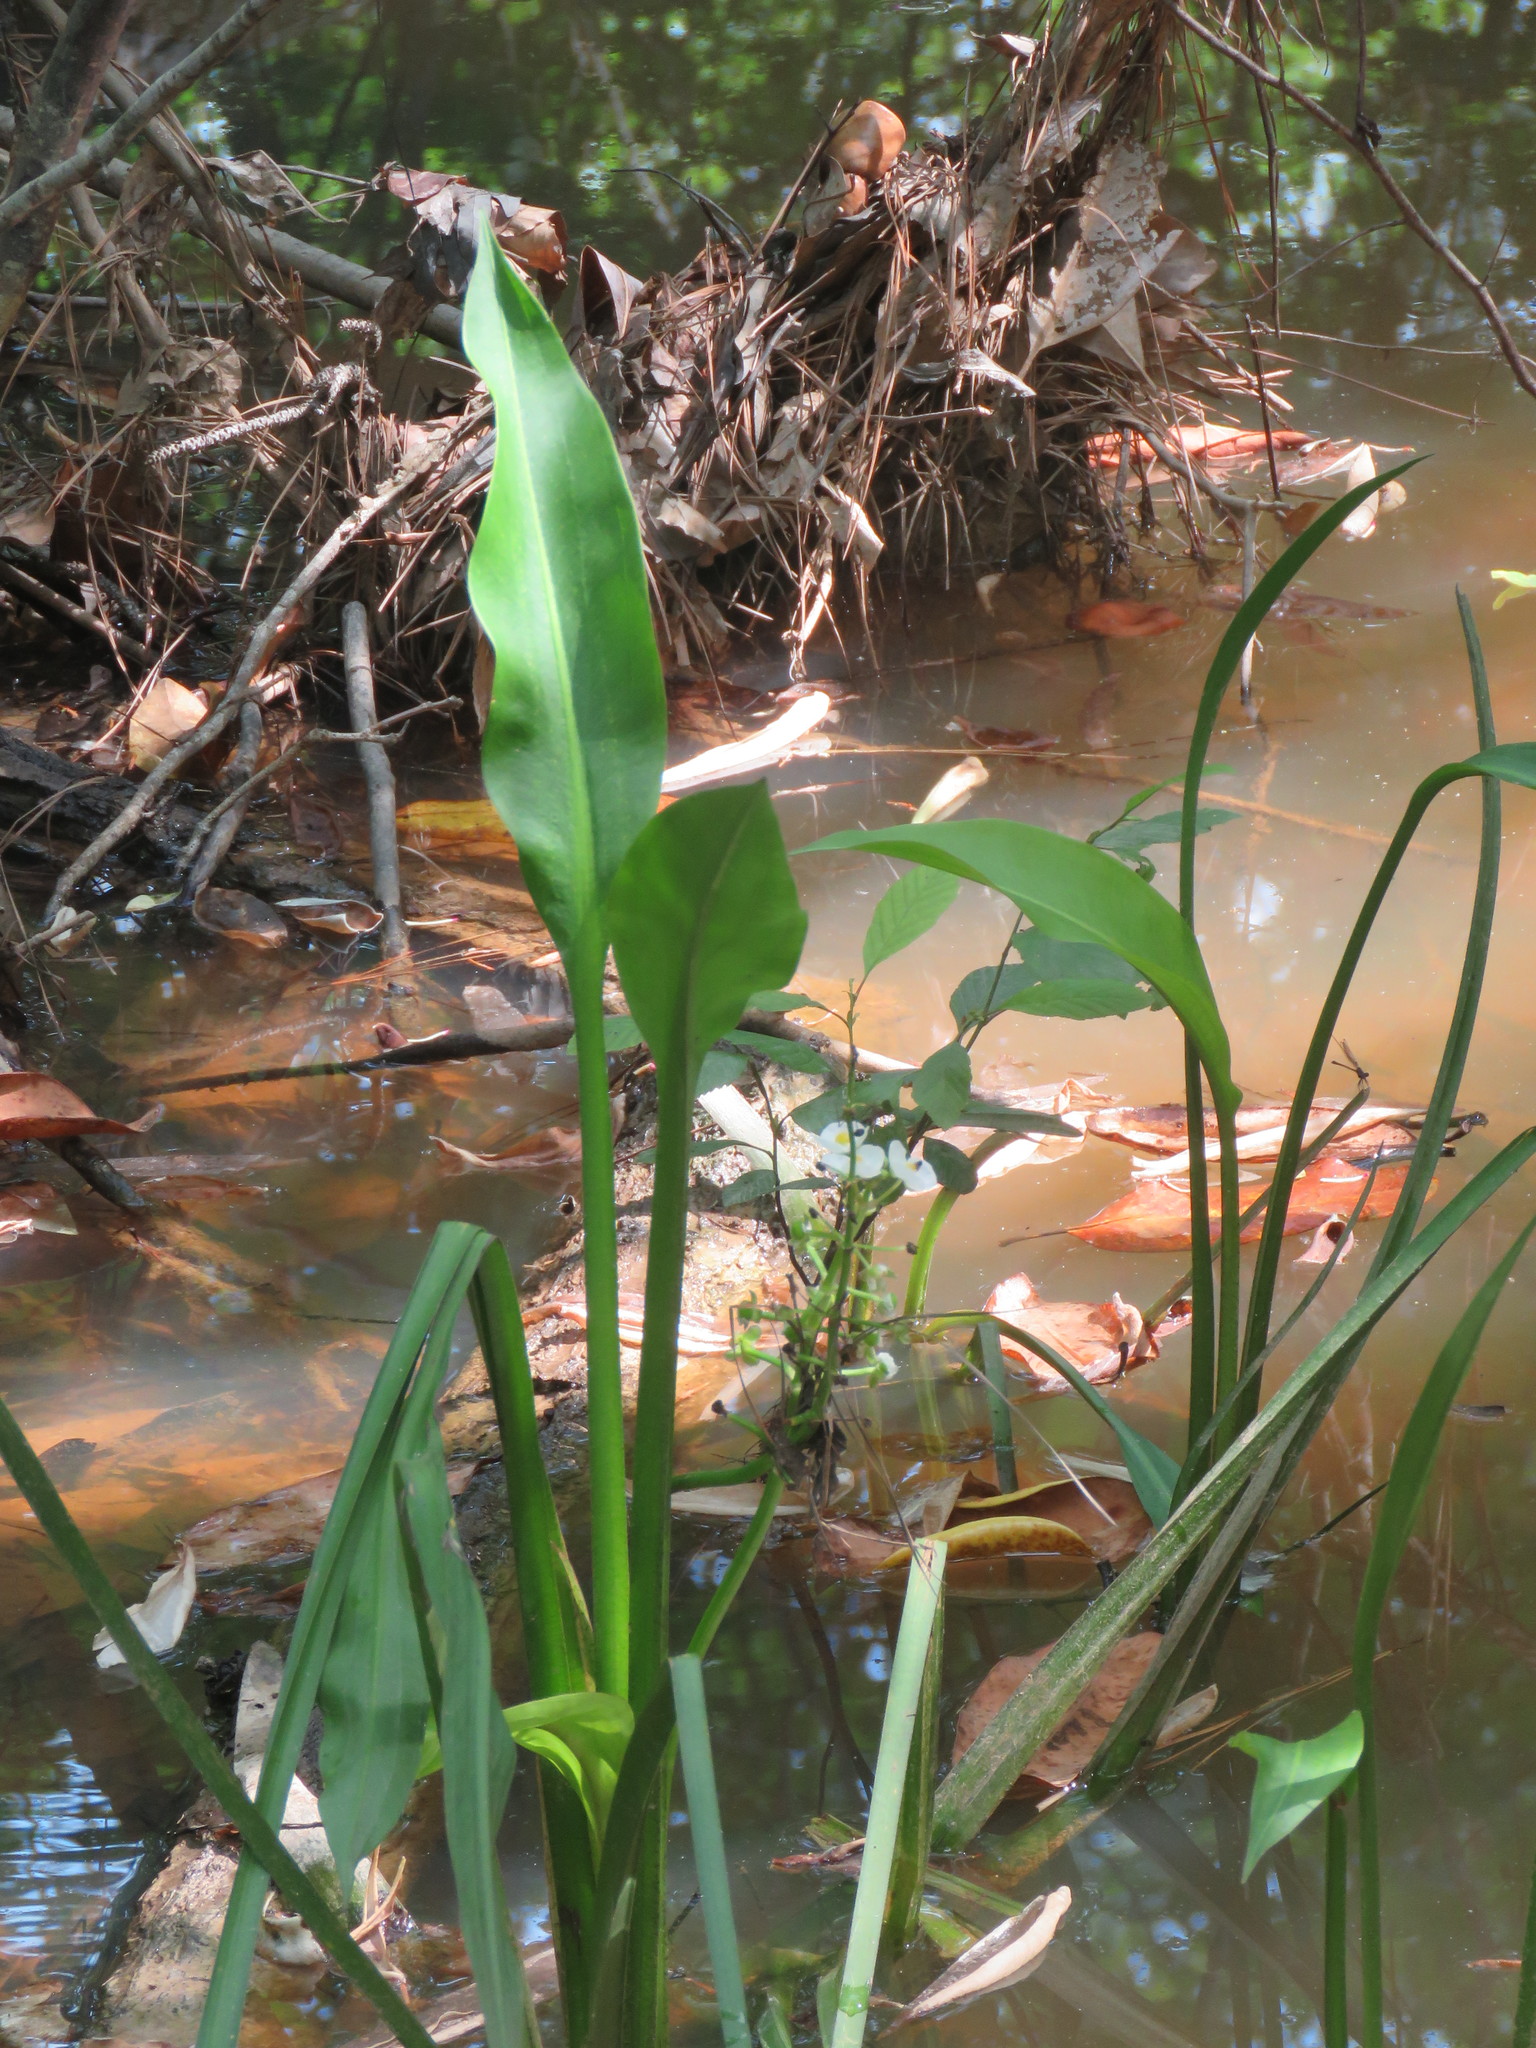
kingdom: Plantae
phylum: Tracheophyta
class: Liliopsida
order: Alismatales
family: Alismataceae
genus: Sagittaria
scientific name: Sagittaria platyphylla
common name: Broad-leaf arrowhead
